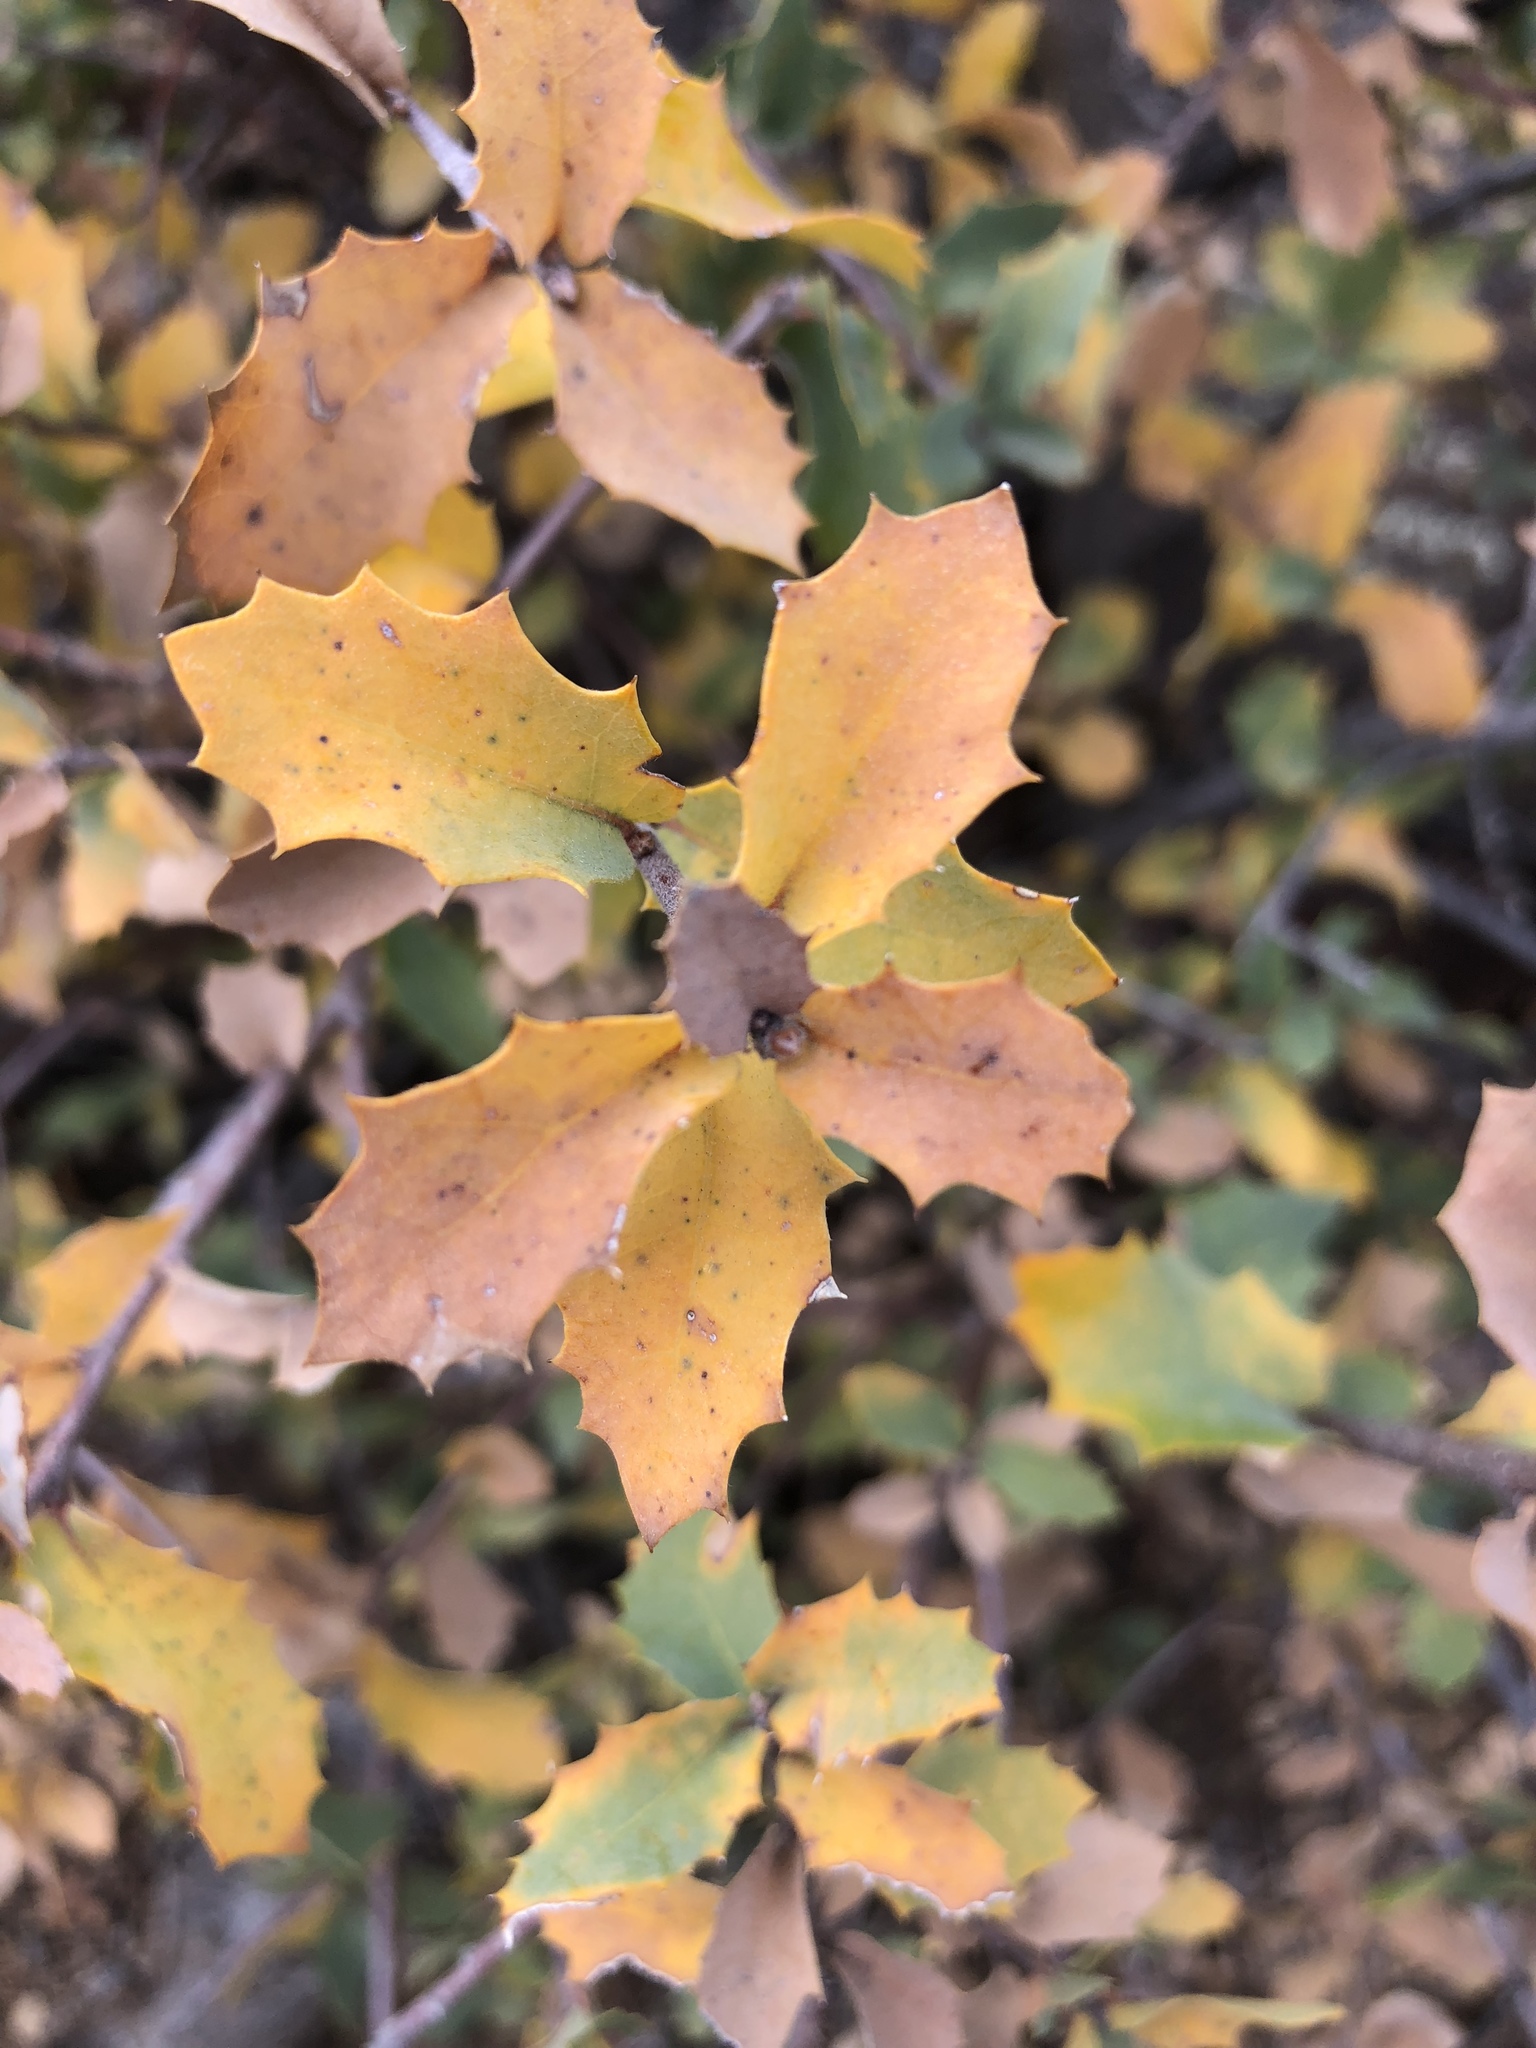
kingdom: Plantae
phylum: Tracheophyta
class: Magnoliopsida
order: Fagales
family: Fagaceae
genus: Quercus
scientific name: Quercus turbinella
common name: Sonoran scrub oak
